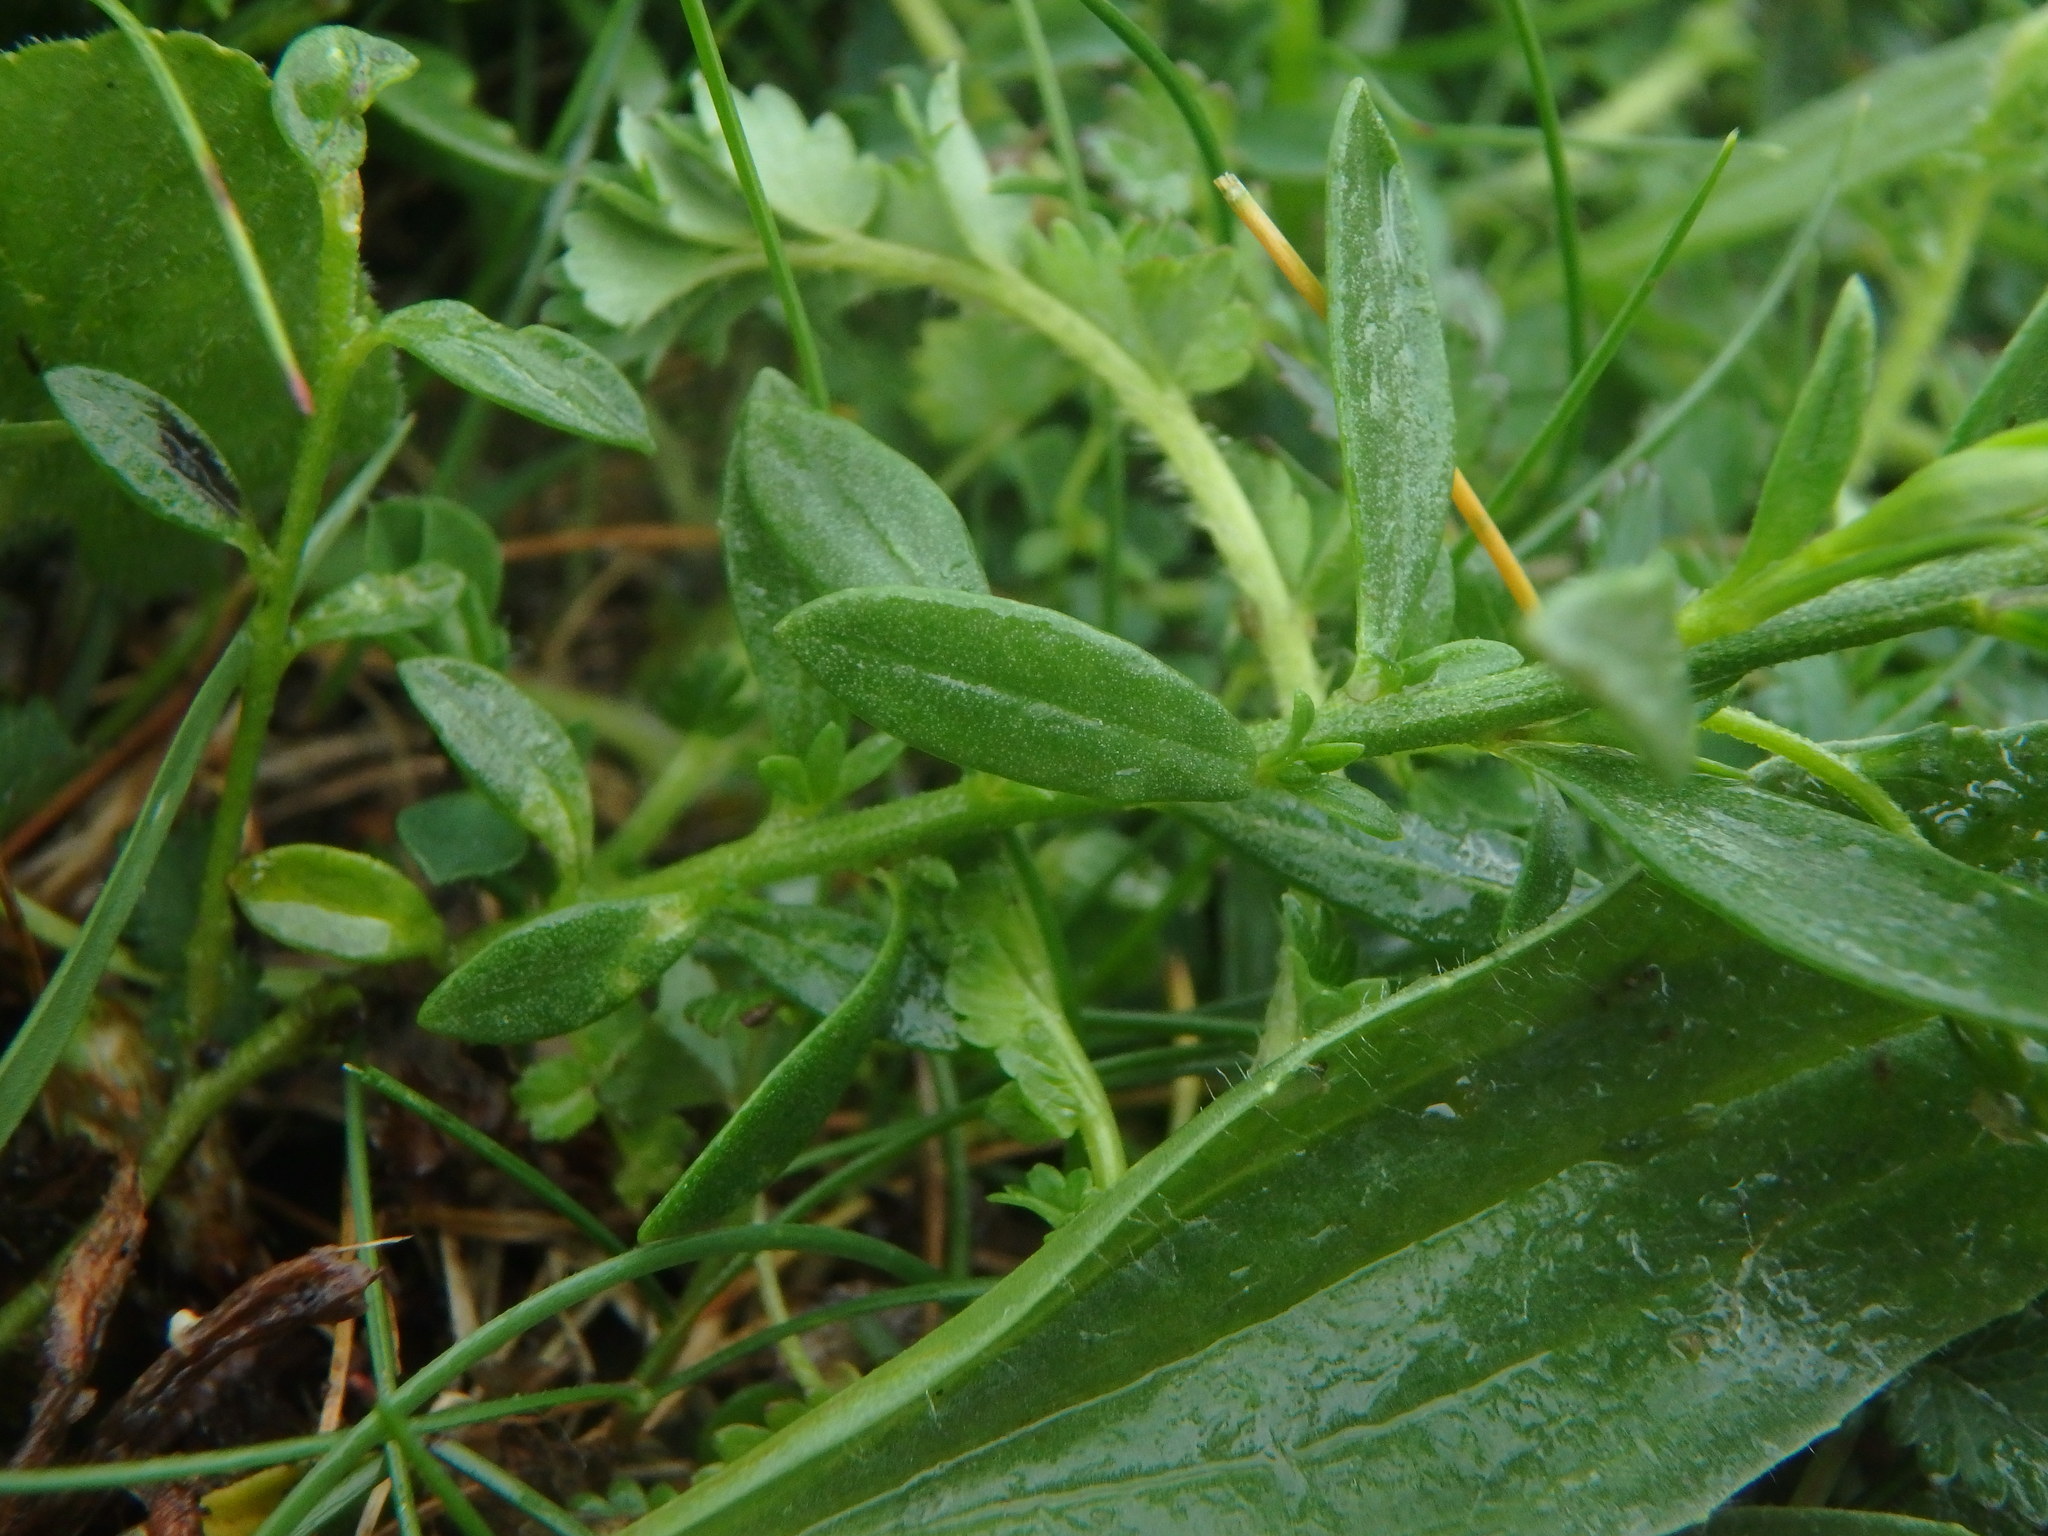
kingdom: Plantae
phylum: Tracheophyta
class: Magnoliopsida
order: Fabales
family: Polygalaceae
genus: Polygala
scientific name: Polygala vulgaris
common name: Common milkwort
